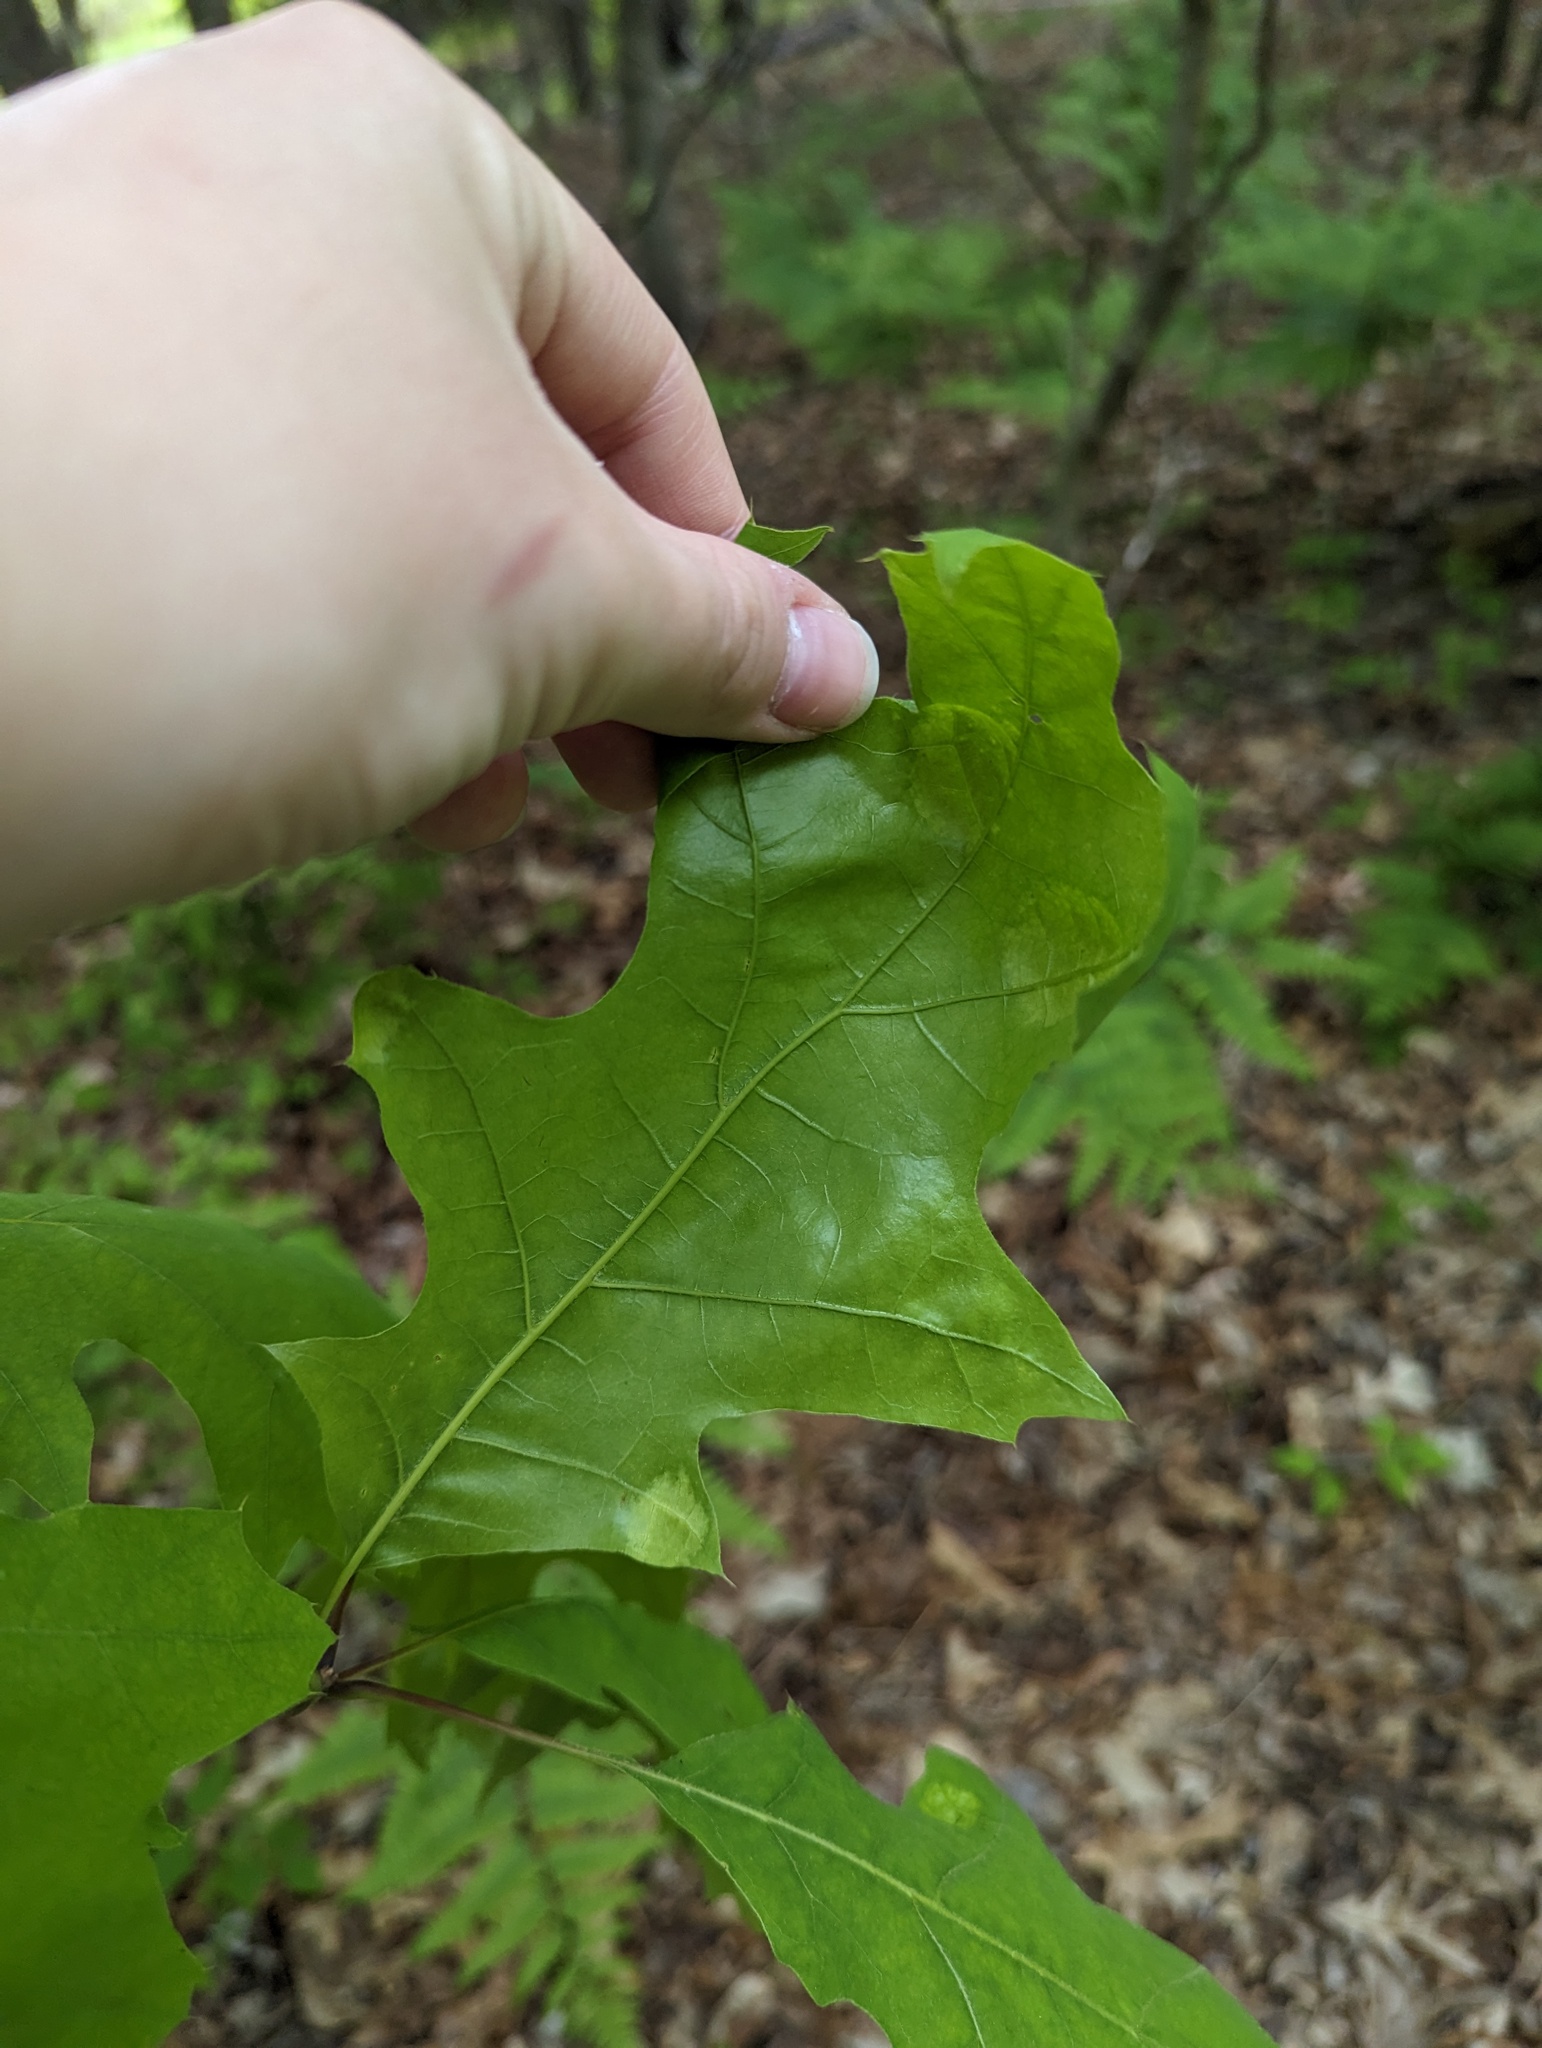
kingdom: Fungi
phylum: Ascomycota
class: Taphrinomycetes
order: Taphrinales
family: Taphrinaceae
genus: Taphrina
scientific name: Taphrina caerulescens
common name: Oak leaf blister
